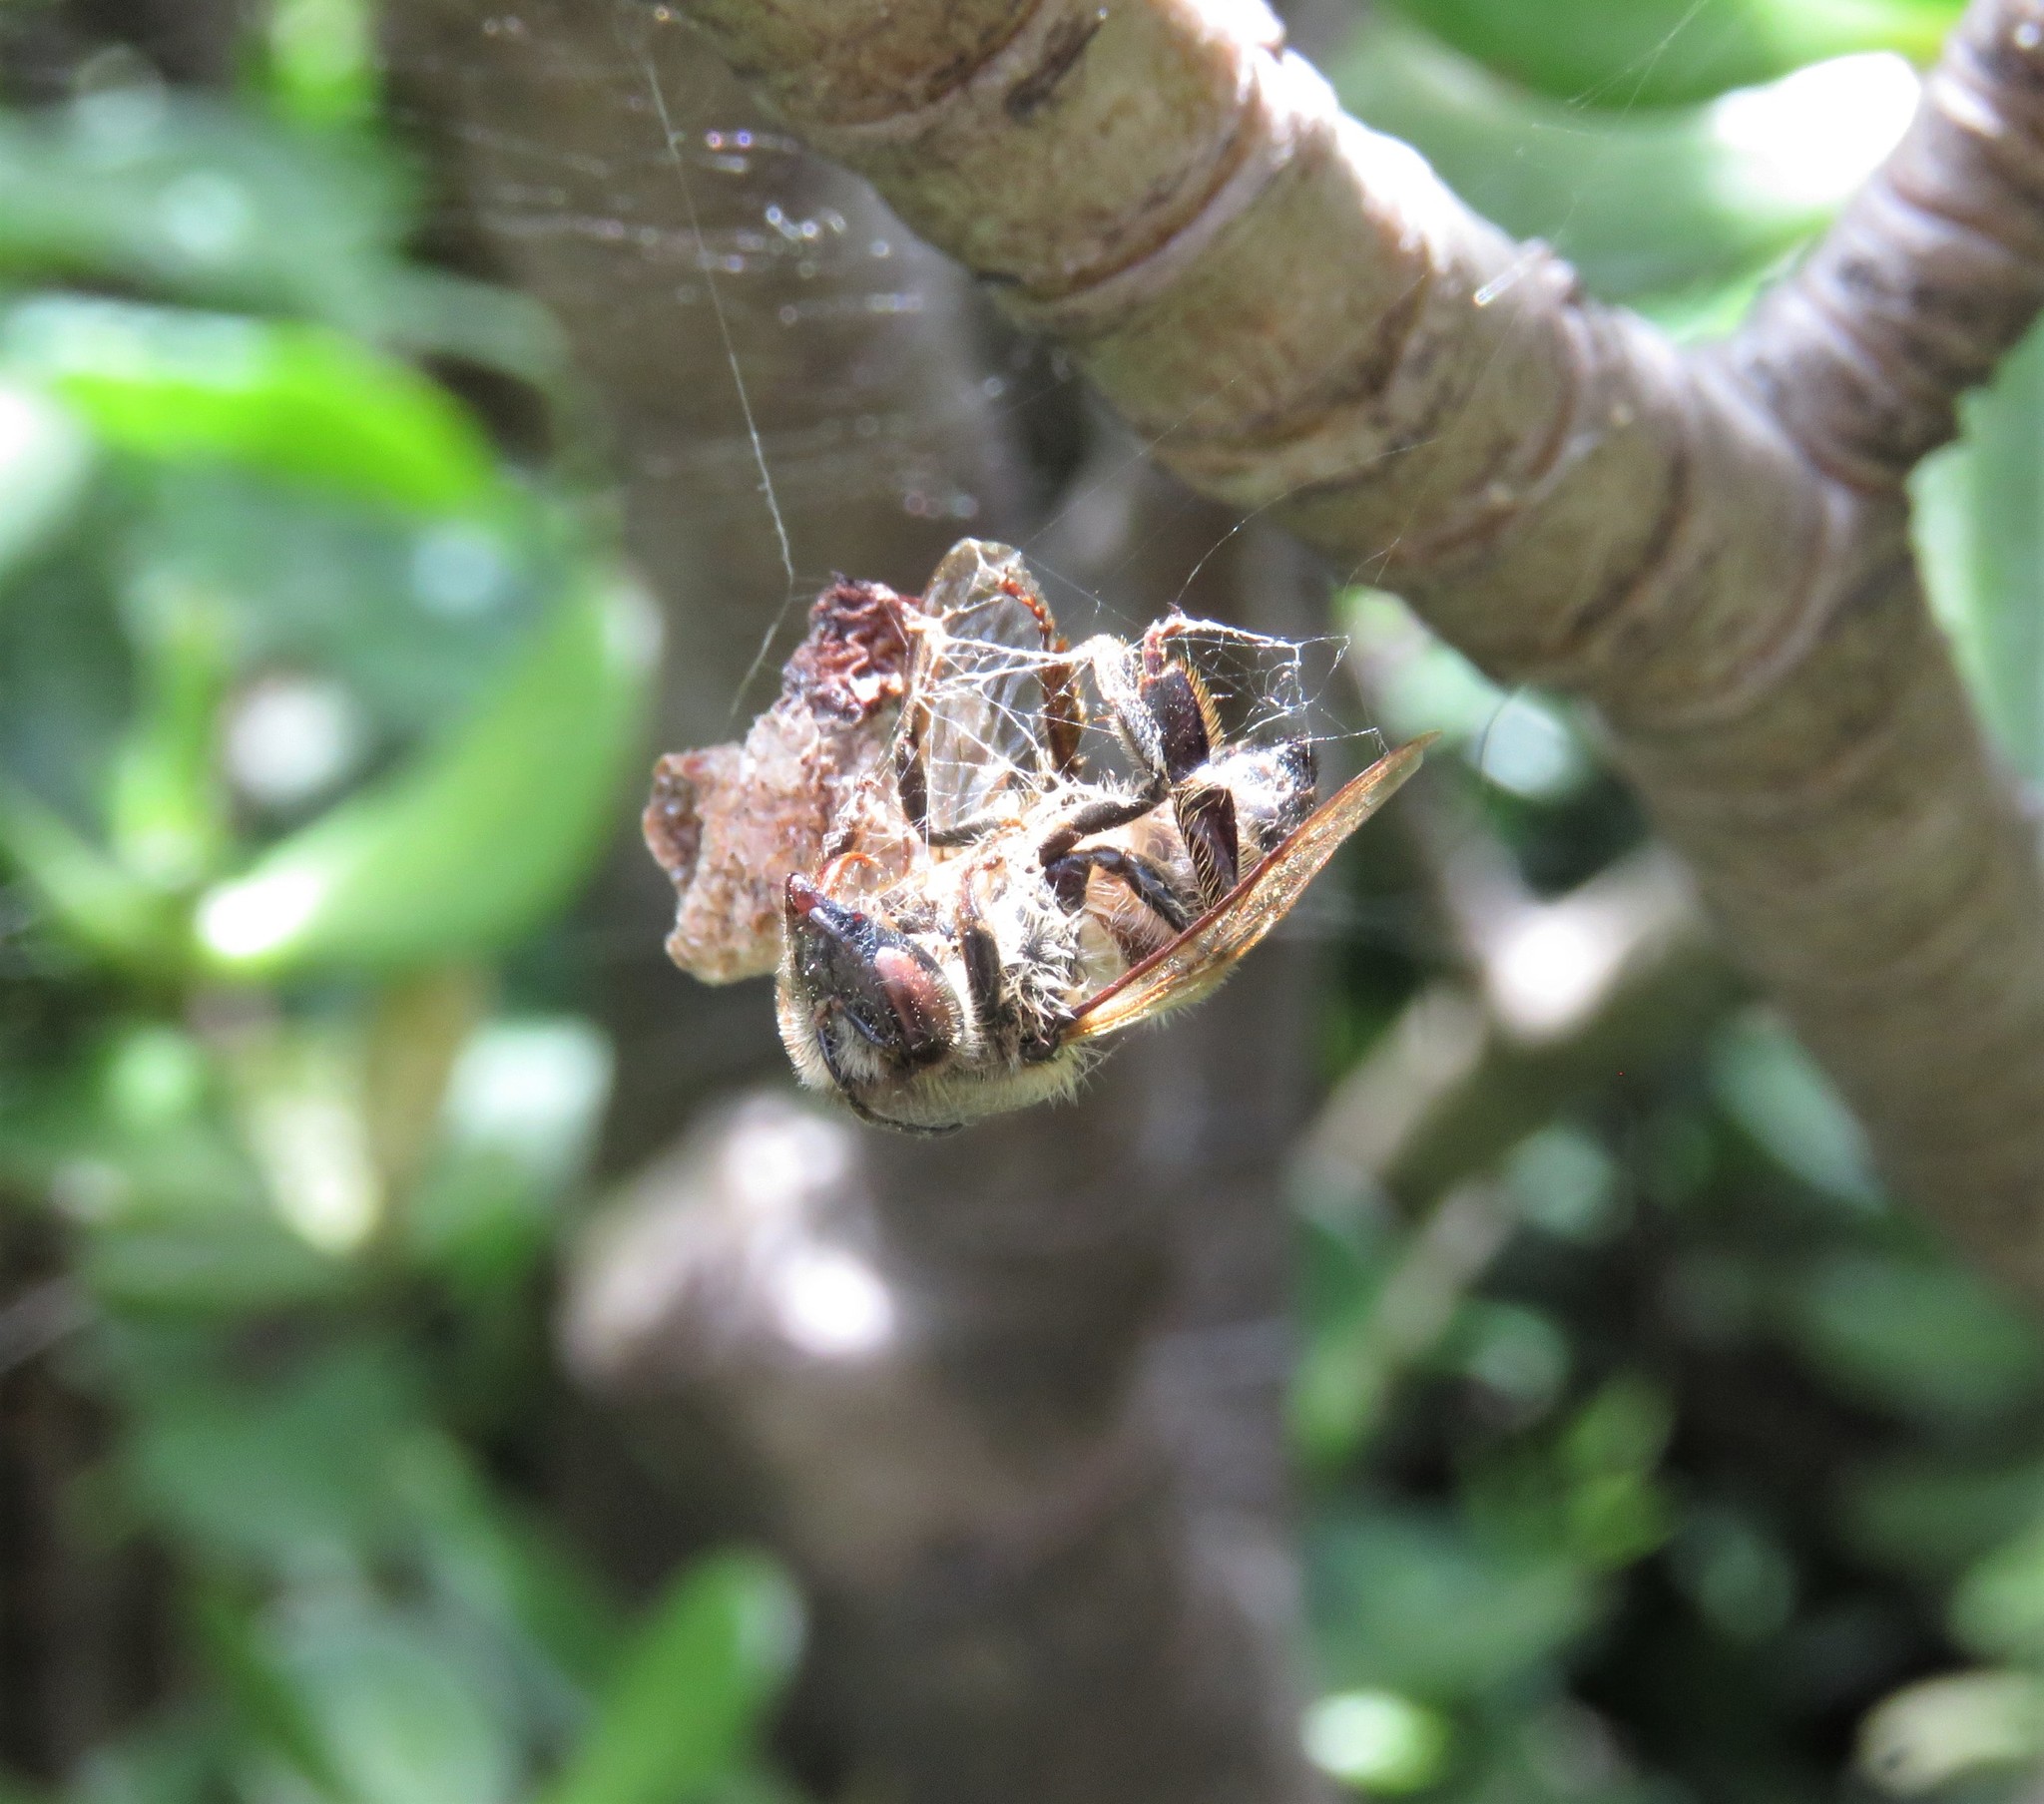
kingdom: Animalia
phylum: Arthropoda
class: Insecta
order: Hymenoptera
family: Apidae
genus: Apis
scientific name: Apis mellifera
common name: Honey bee
